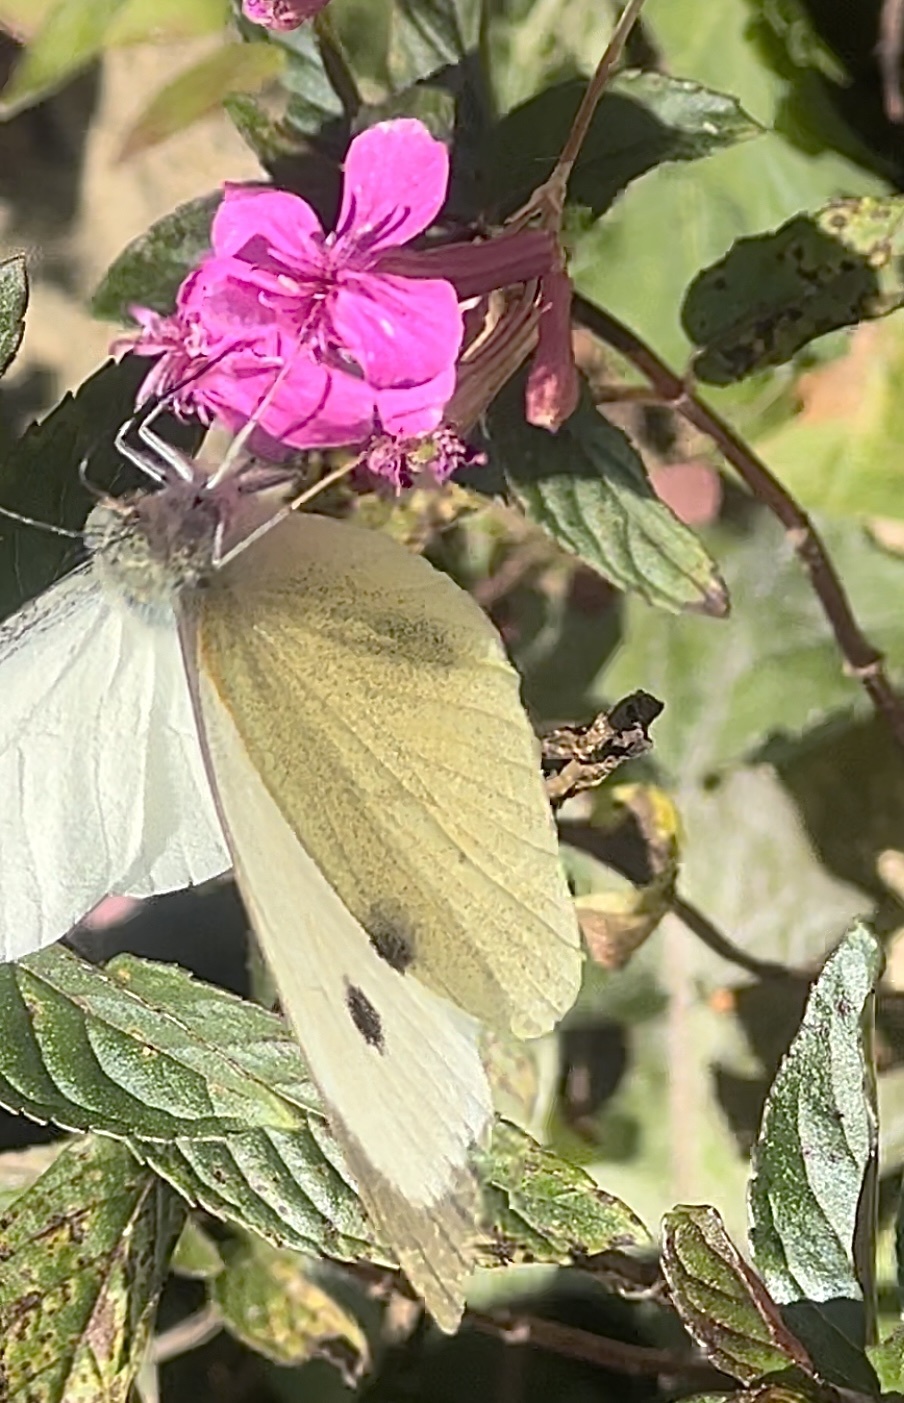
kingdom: Animalia
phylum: Arthropoda
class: Insecta
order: Lepidoptera
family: Pieridae
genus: Pieris
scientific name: Pieris brassicae
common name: Large white
